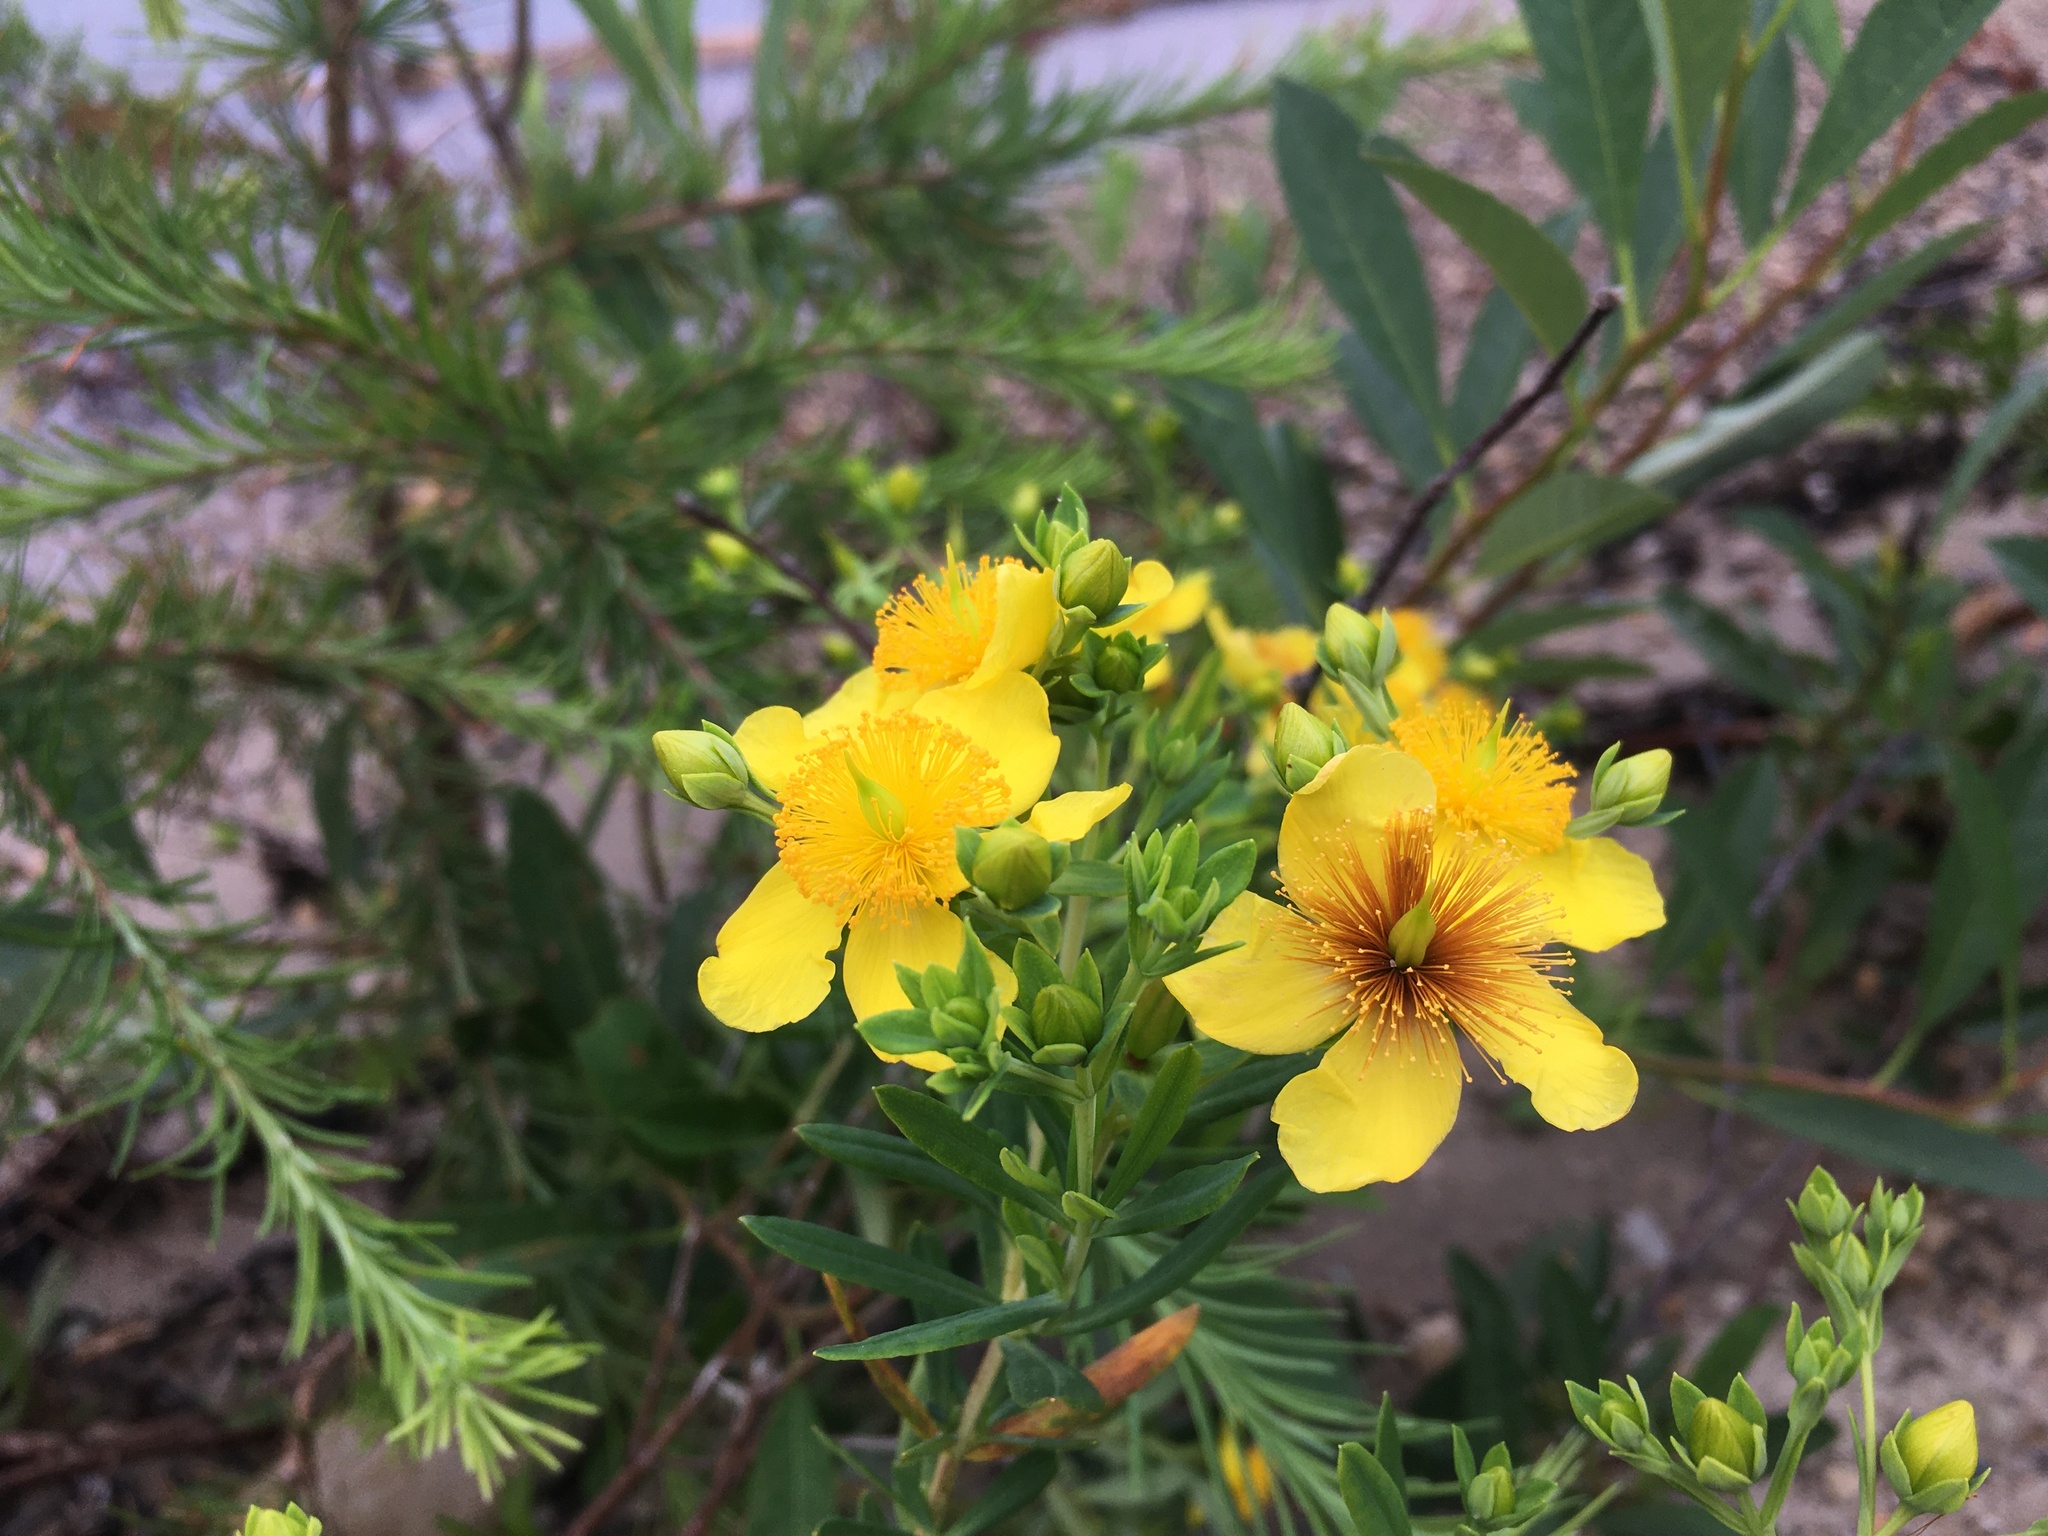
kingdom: Plantae
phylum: Tracheophyta
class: Magnoliopsida
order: Malpighiales
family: Hypericaceae
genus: Hypericum
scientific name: Hypericum kalmianum
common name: Kalm's st. john's-wort
